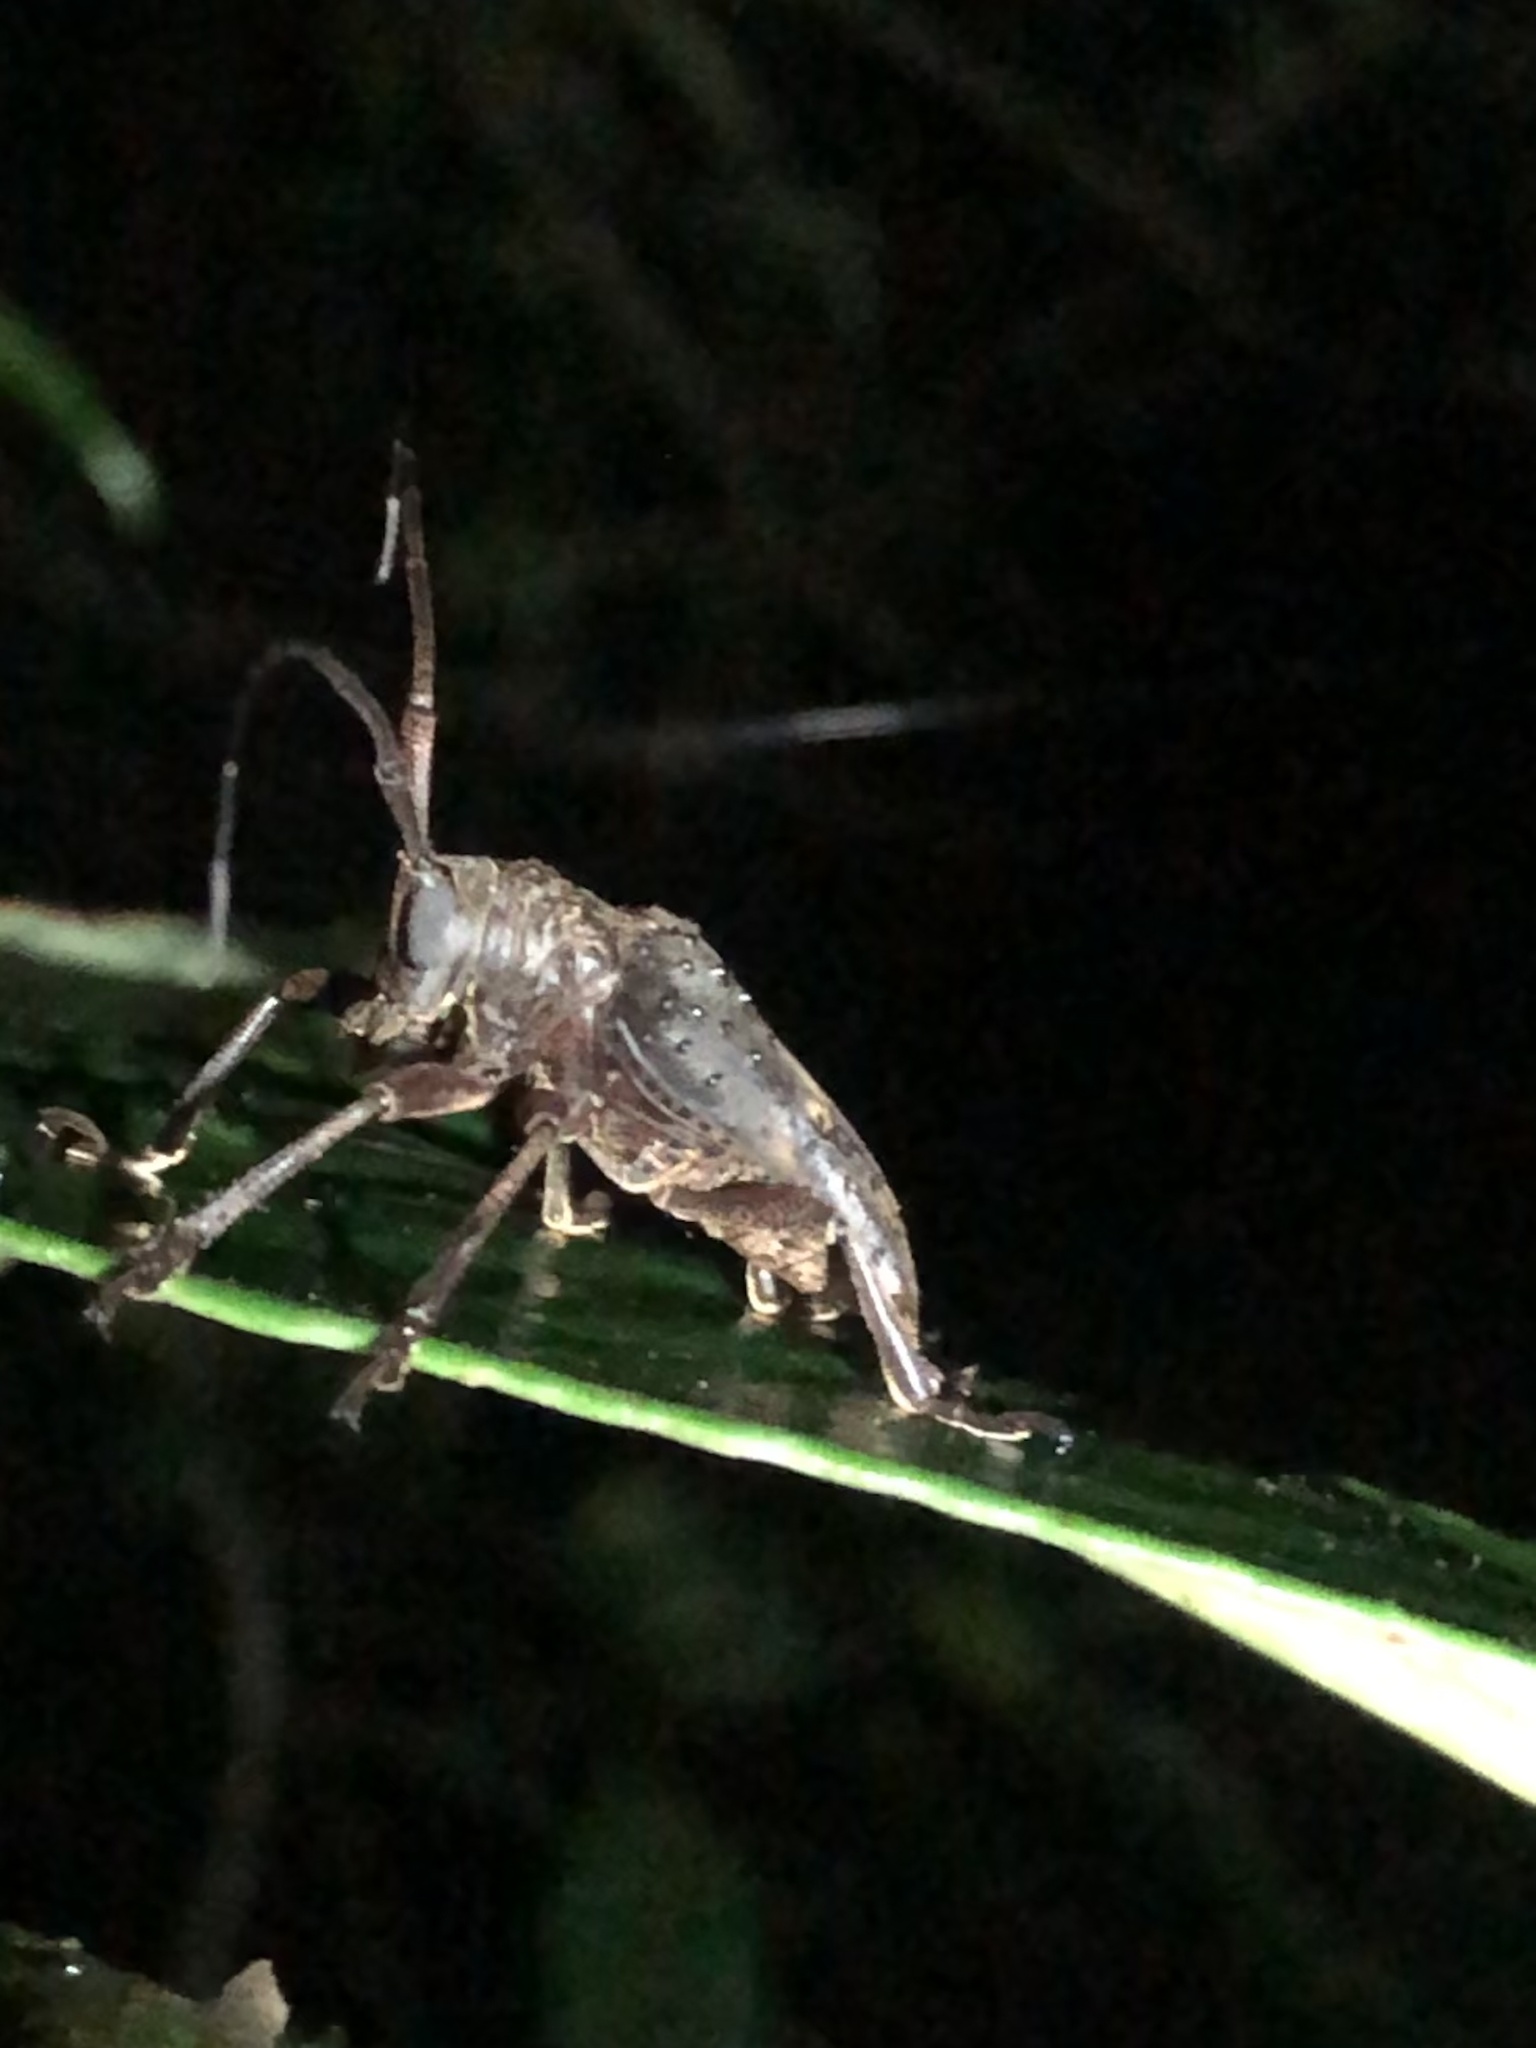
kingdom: Animalia
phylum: Arthropoda
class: Insecta
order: Coleoptera
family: Cerambycidae
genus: Jamesia
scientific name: Jamesia globifera
